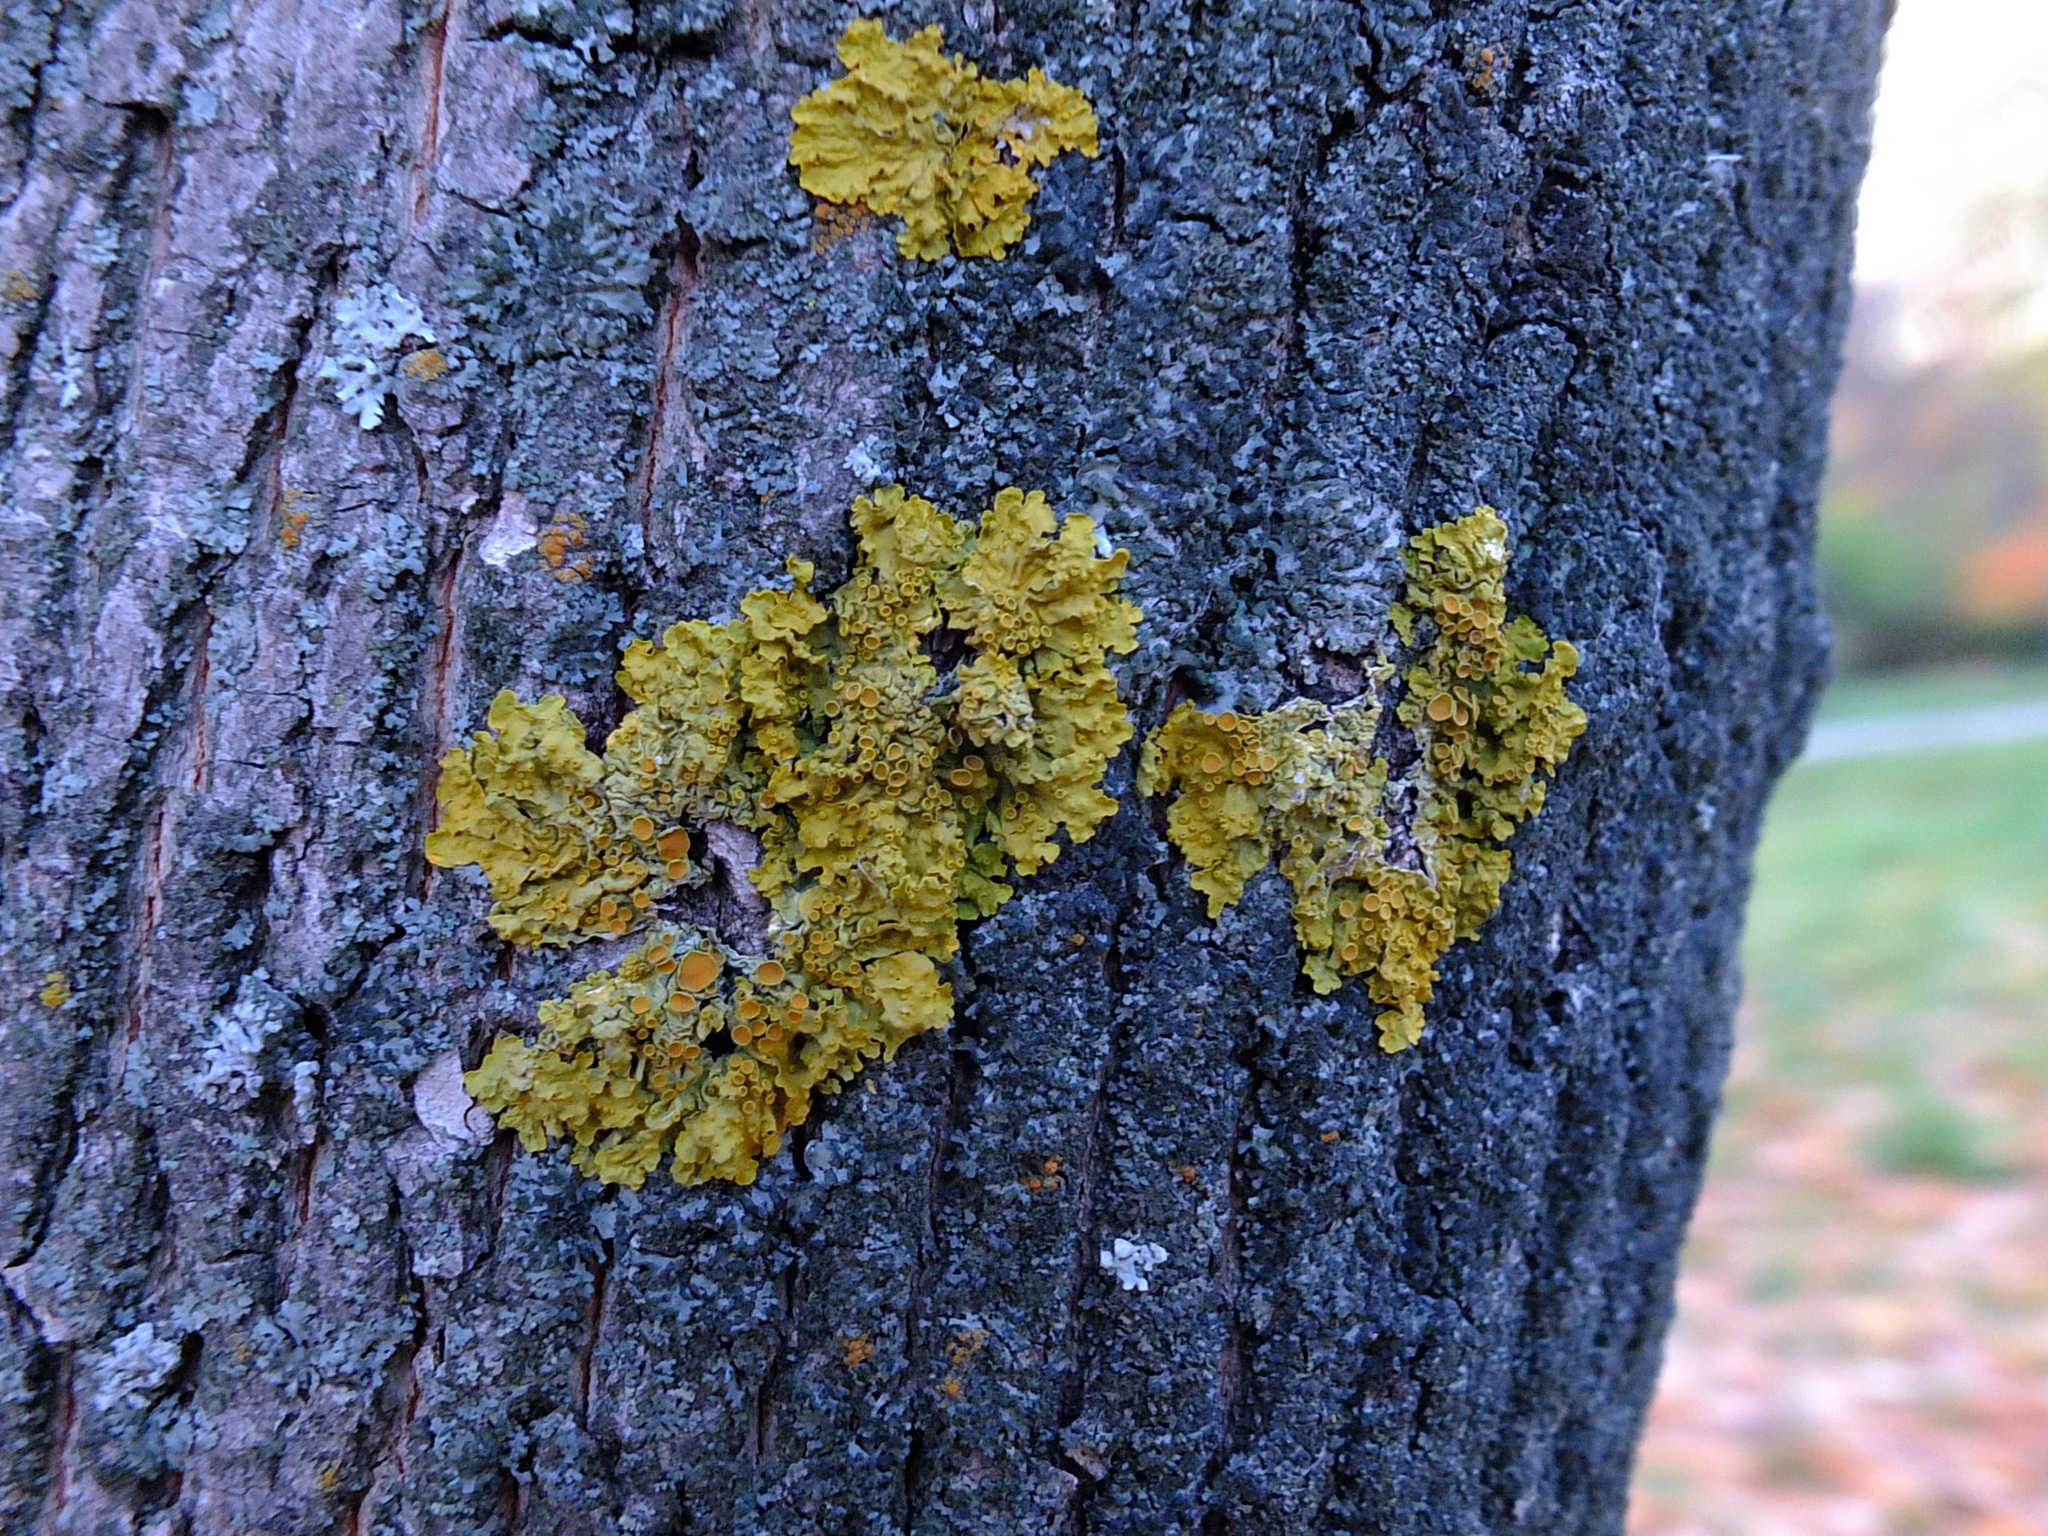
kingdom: Fungi
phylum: Ascomycota
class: Lecanoromycetes
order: Teloschistales
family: Teloschistaceae
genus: Xanthoria
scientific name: Xanthoria parietina
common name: Common orange lichen
